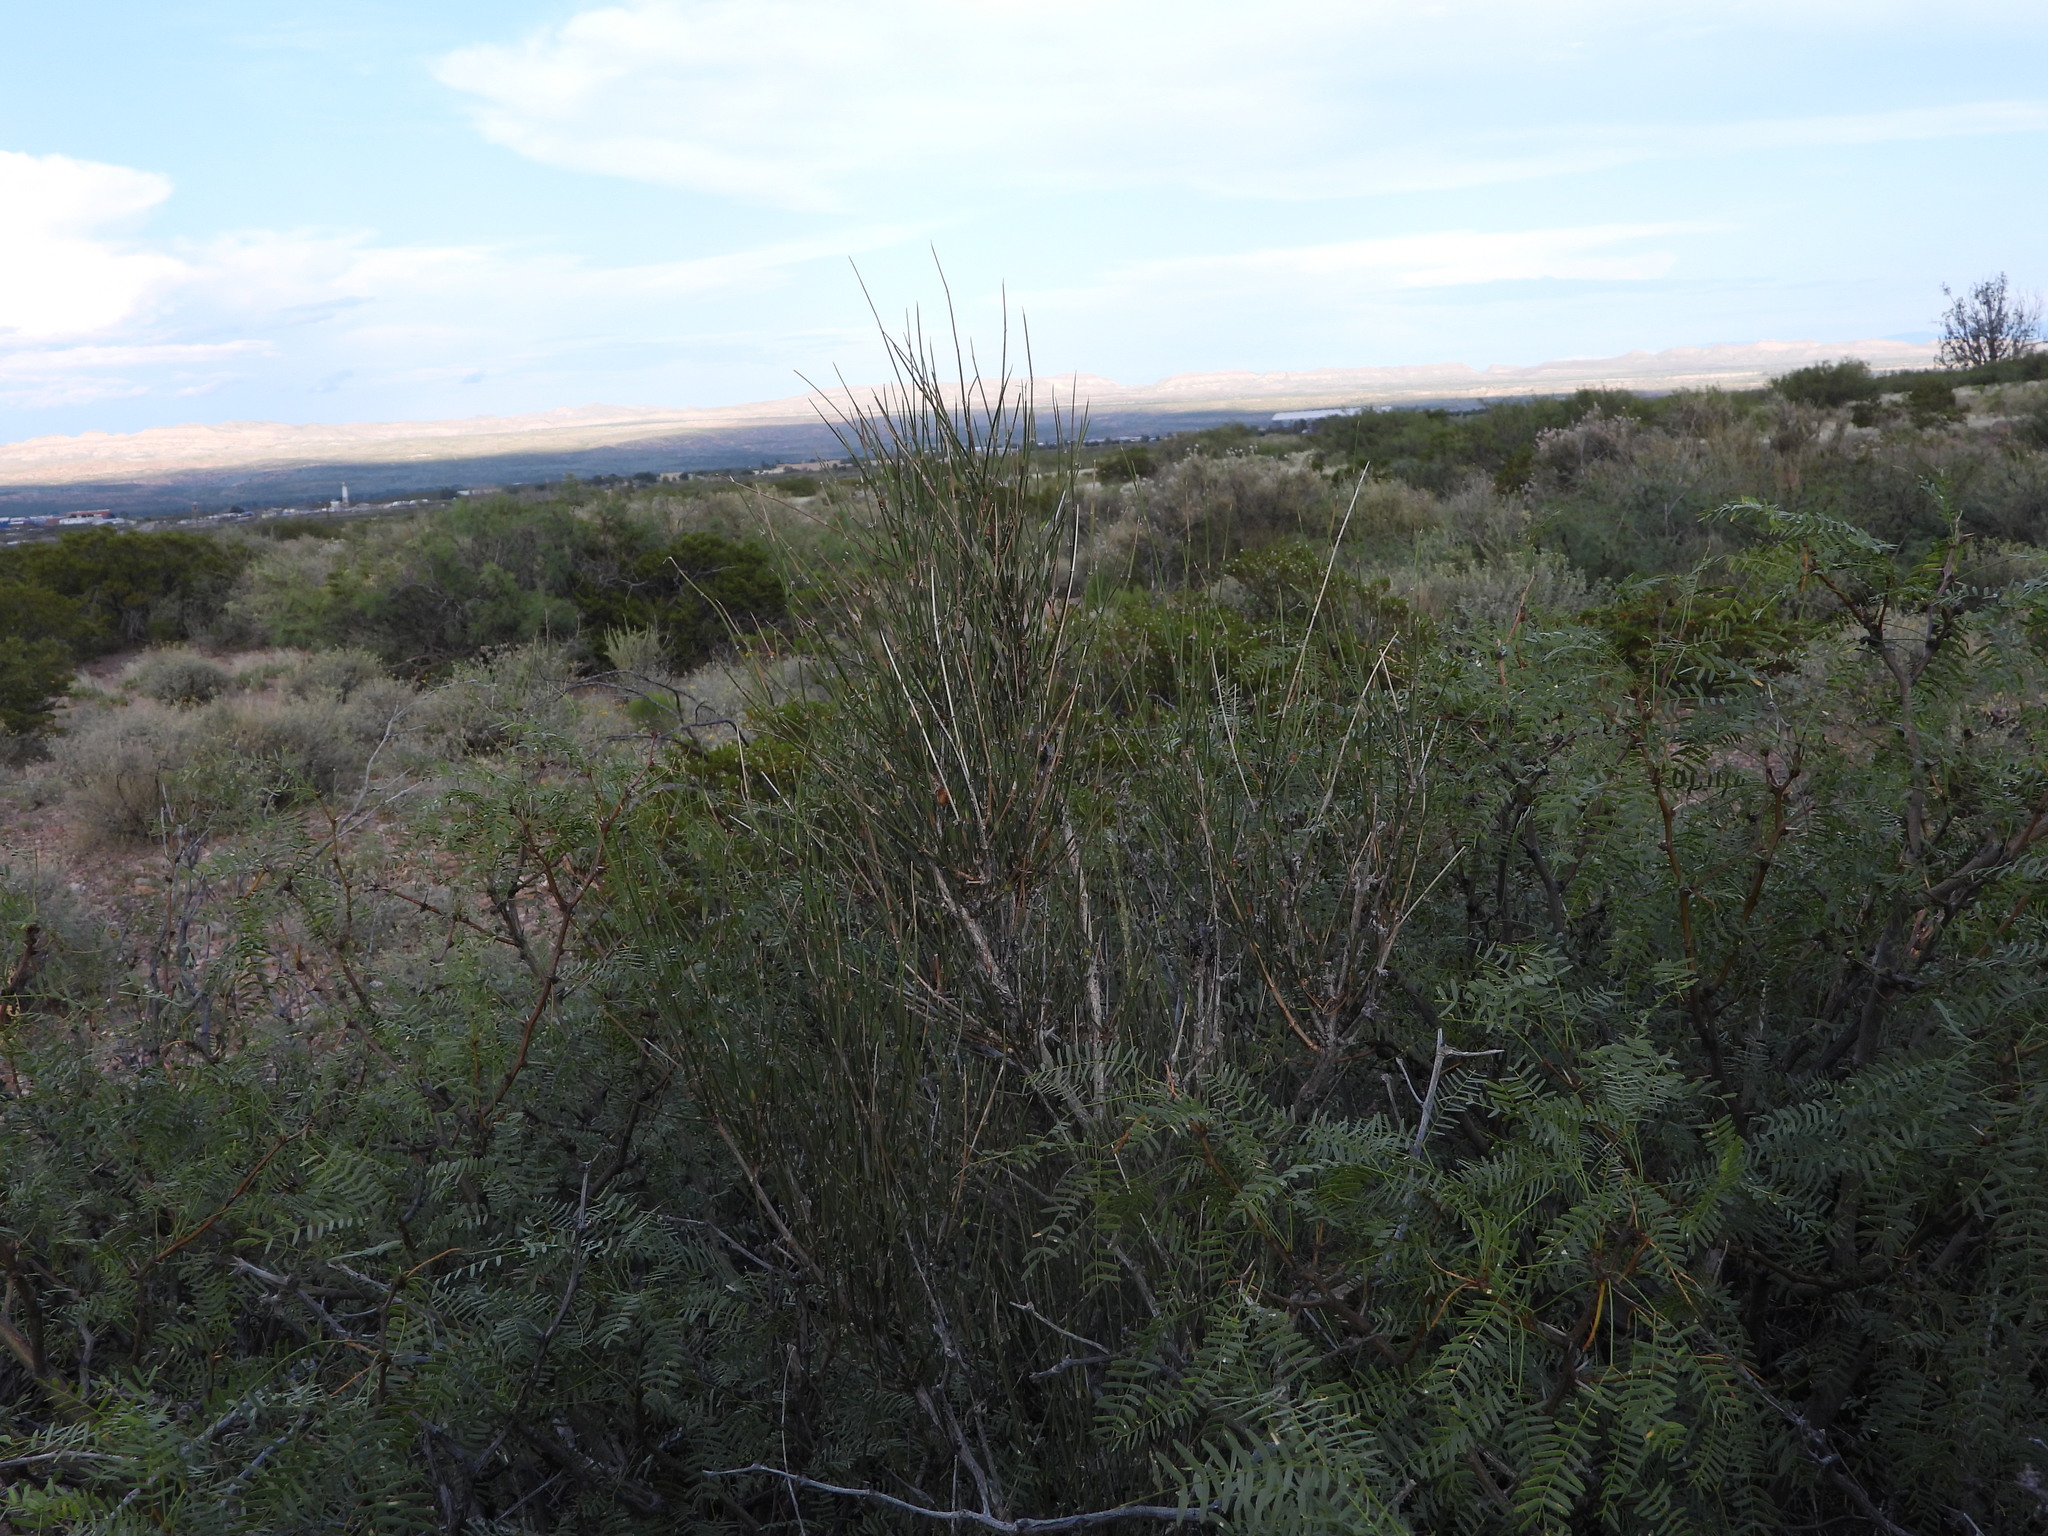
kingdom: Plantae
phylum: Tracheophyta
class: Gnetopsida
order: Ephedrales
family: Ephedraceae
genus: Ephedra
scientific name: Ephedra trifurca
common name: Mexican-tea
